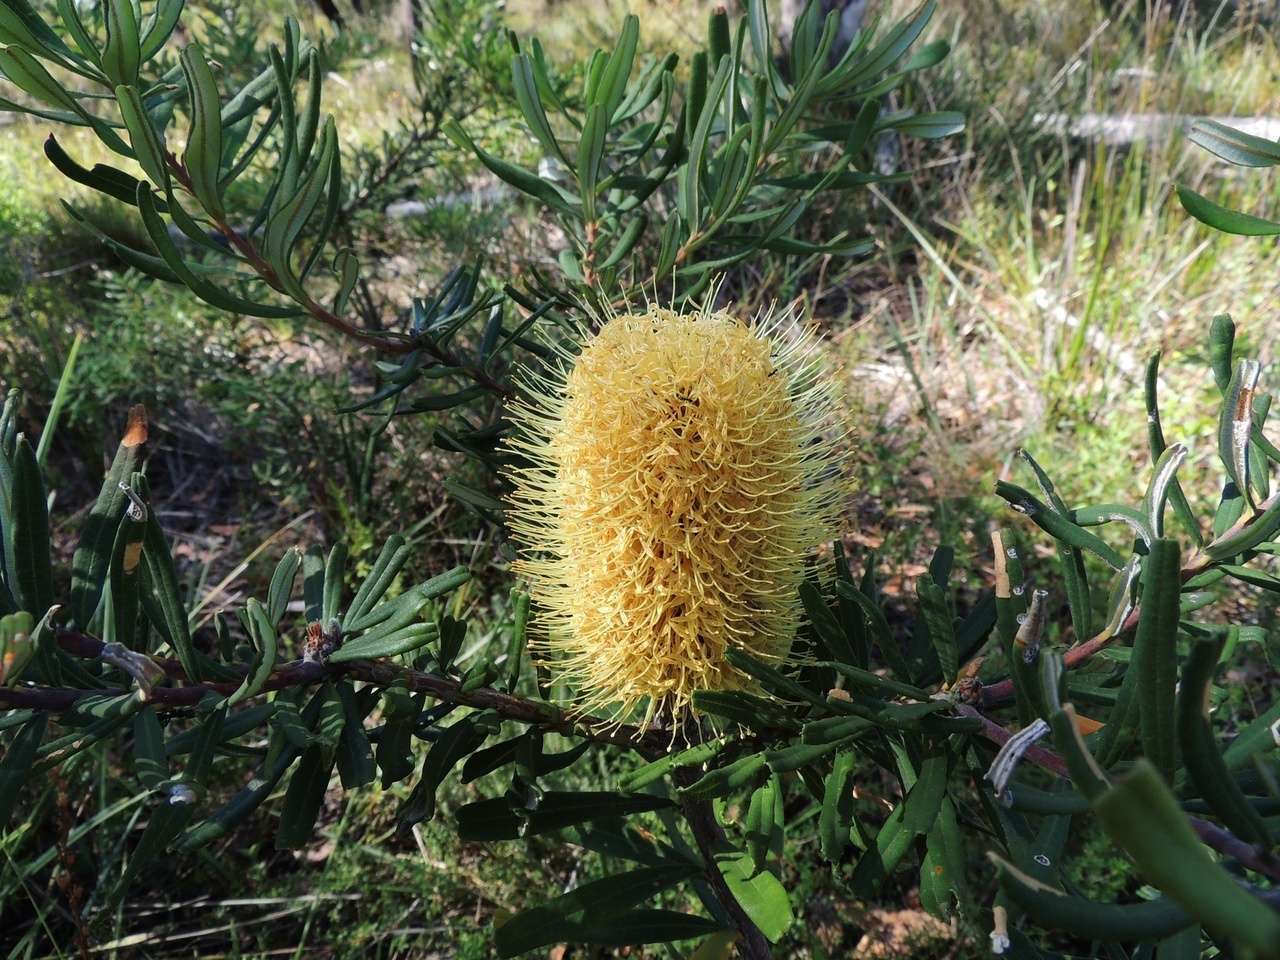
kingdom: Plantae
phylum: Tracheophyta
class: Magnoliopsida
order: Proteales
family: Proteaceae
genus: Banksia
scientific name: Banksia marginata
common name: Silver banksia
